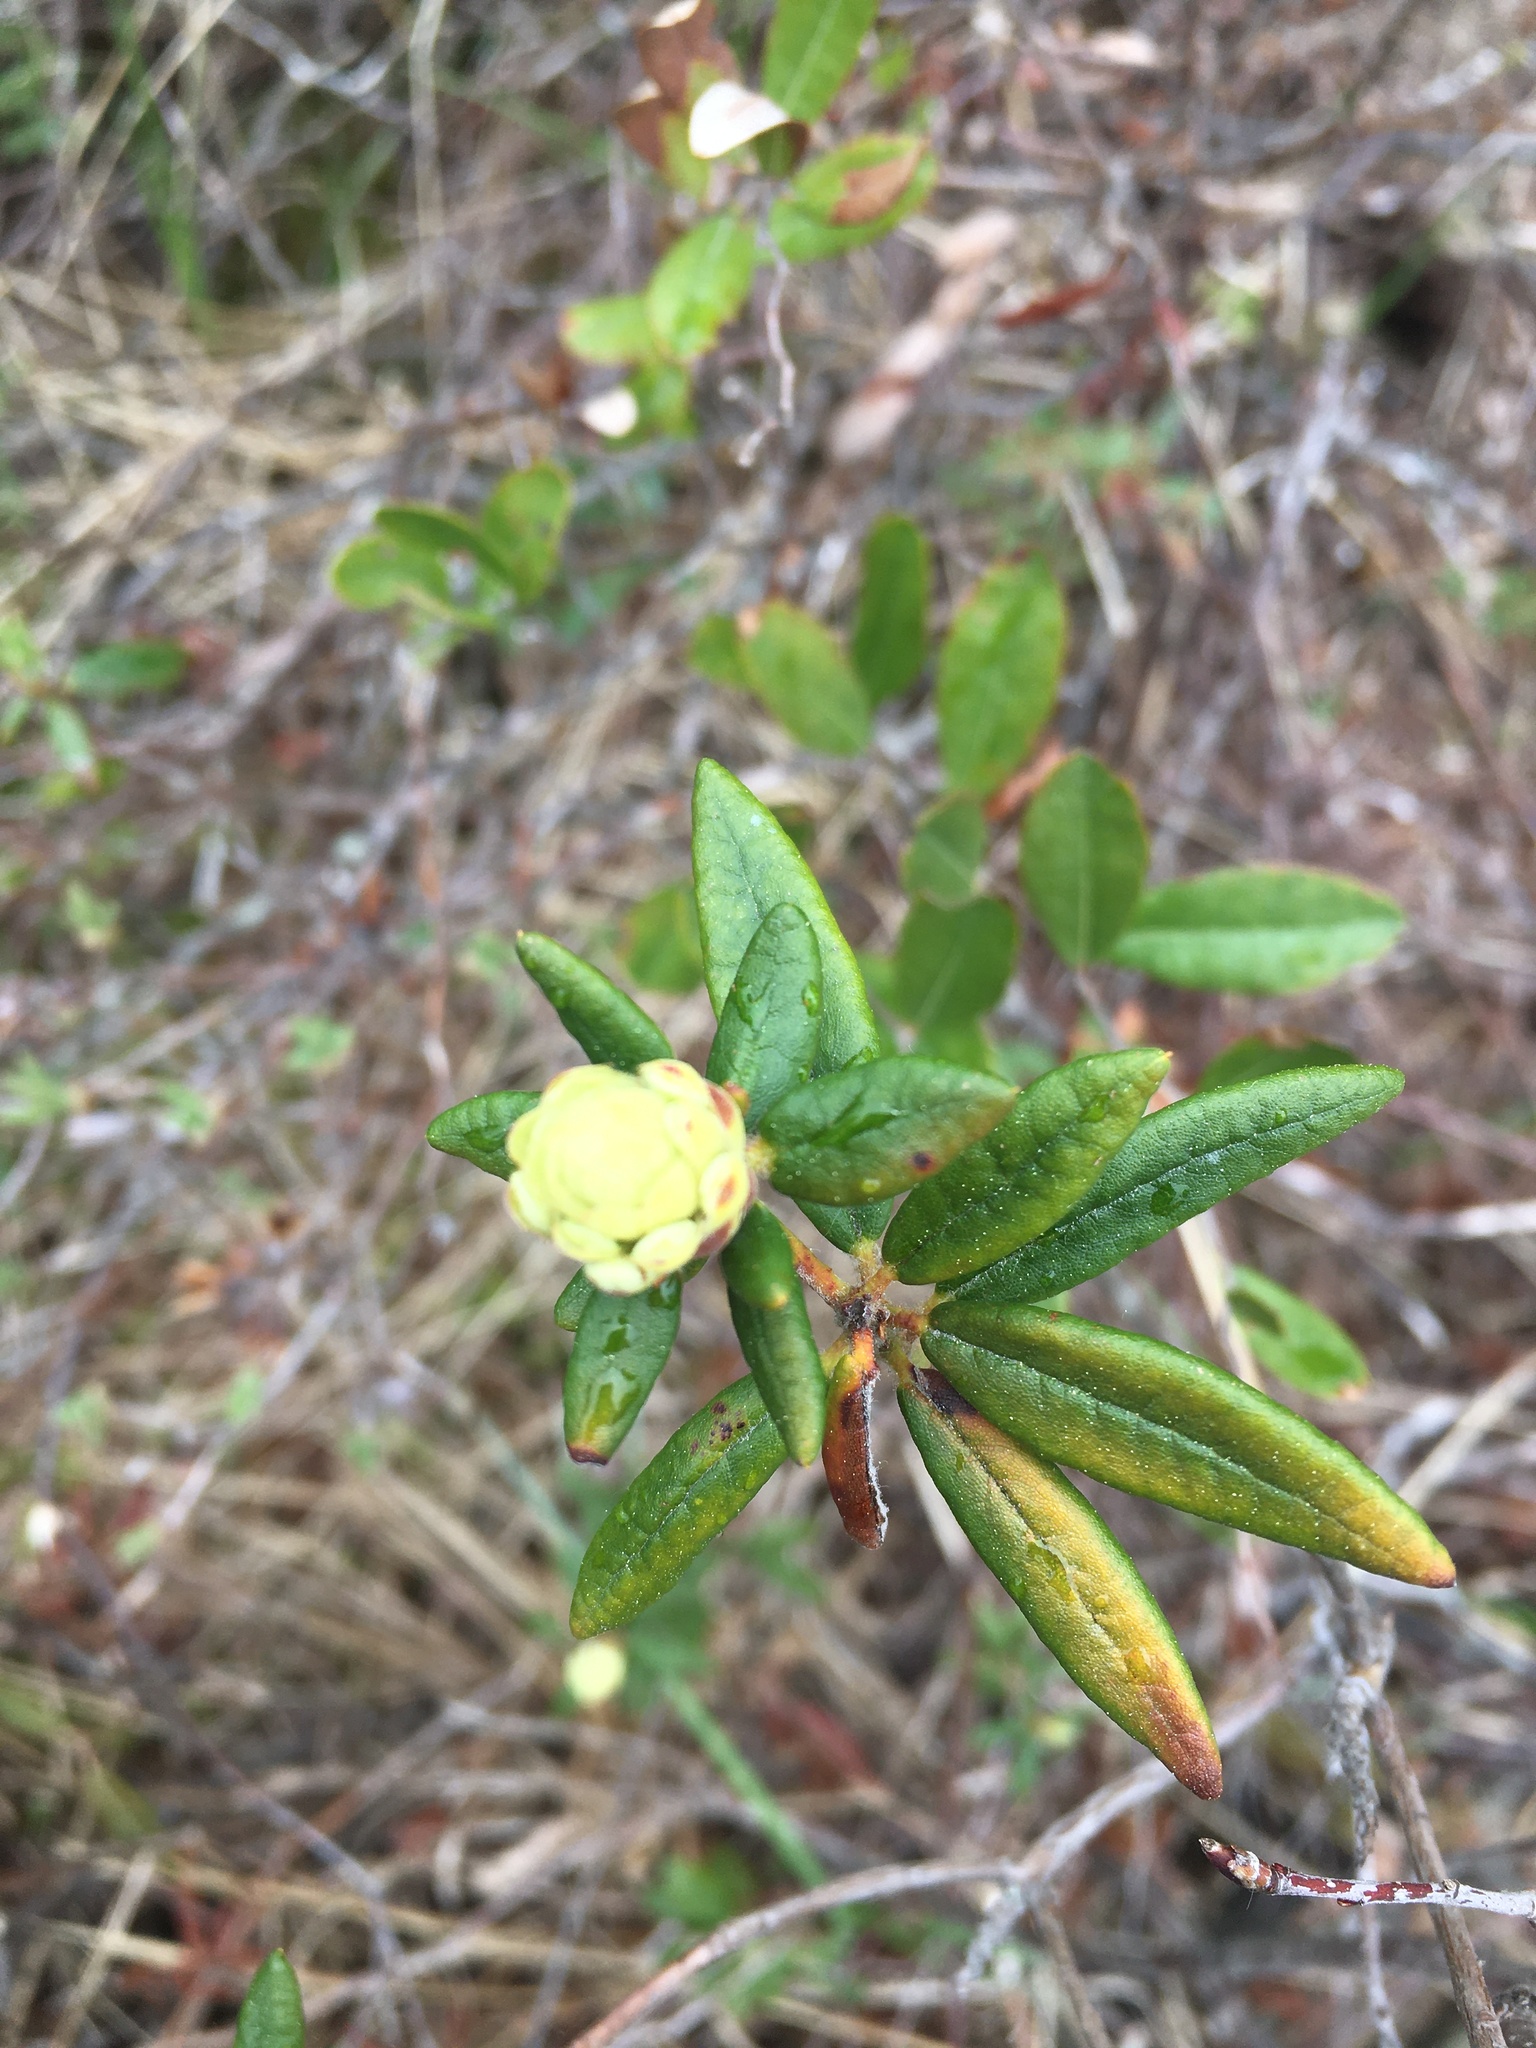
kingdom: Plantae
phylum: Tracheophyta
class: Magnoliopsida
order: Ericales
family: Ericaceae
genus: Rhododendron
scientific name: Rhododendron groenlandicum
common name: Bog labrador tea
